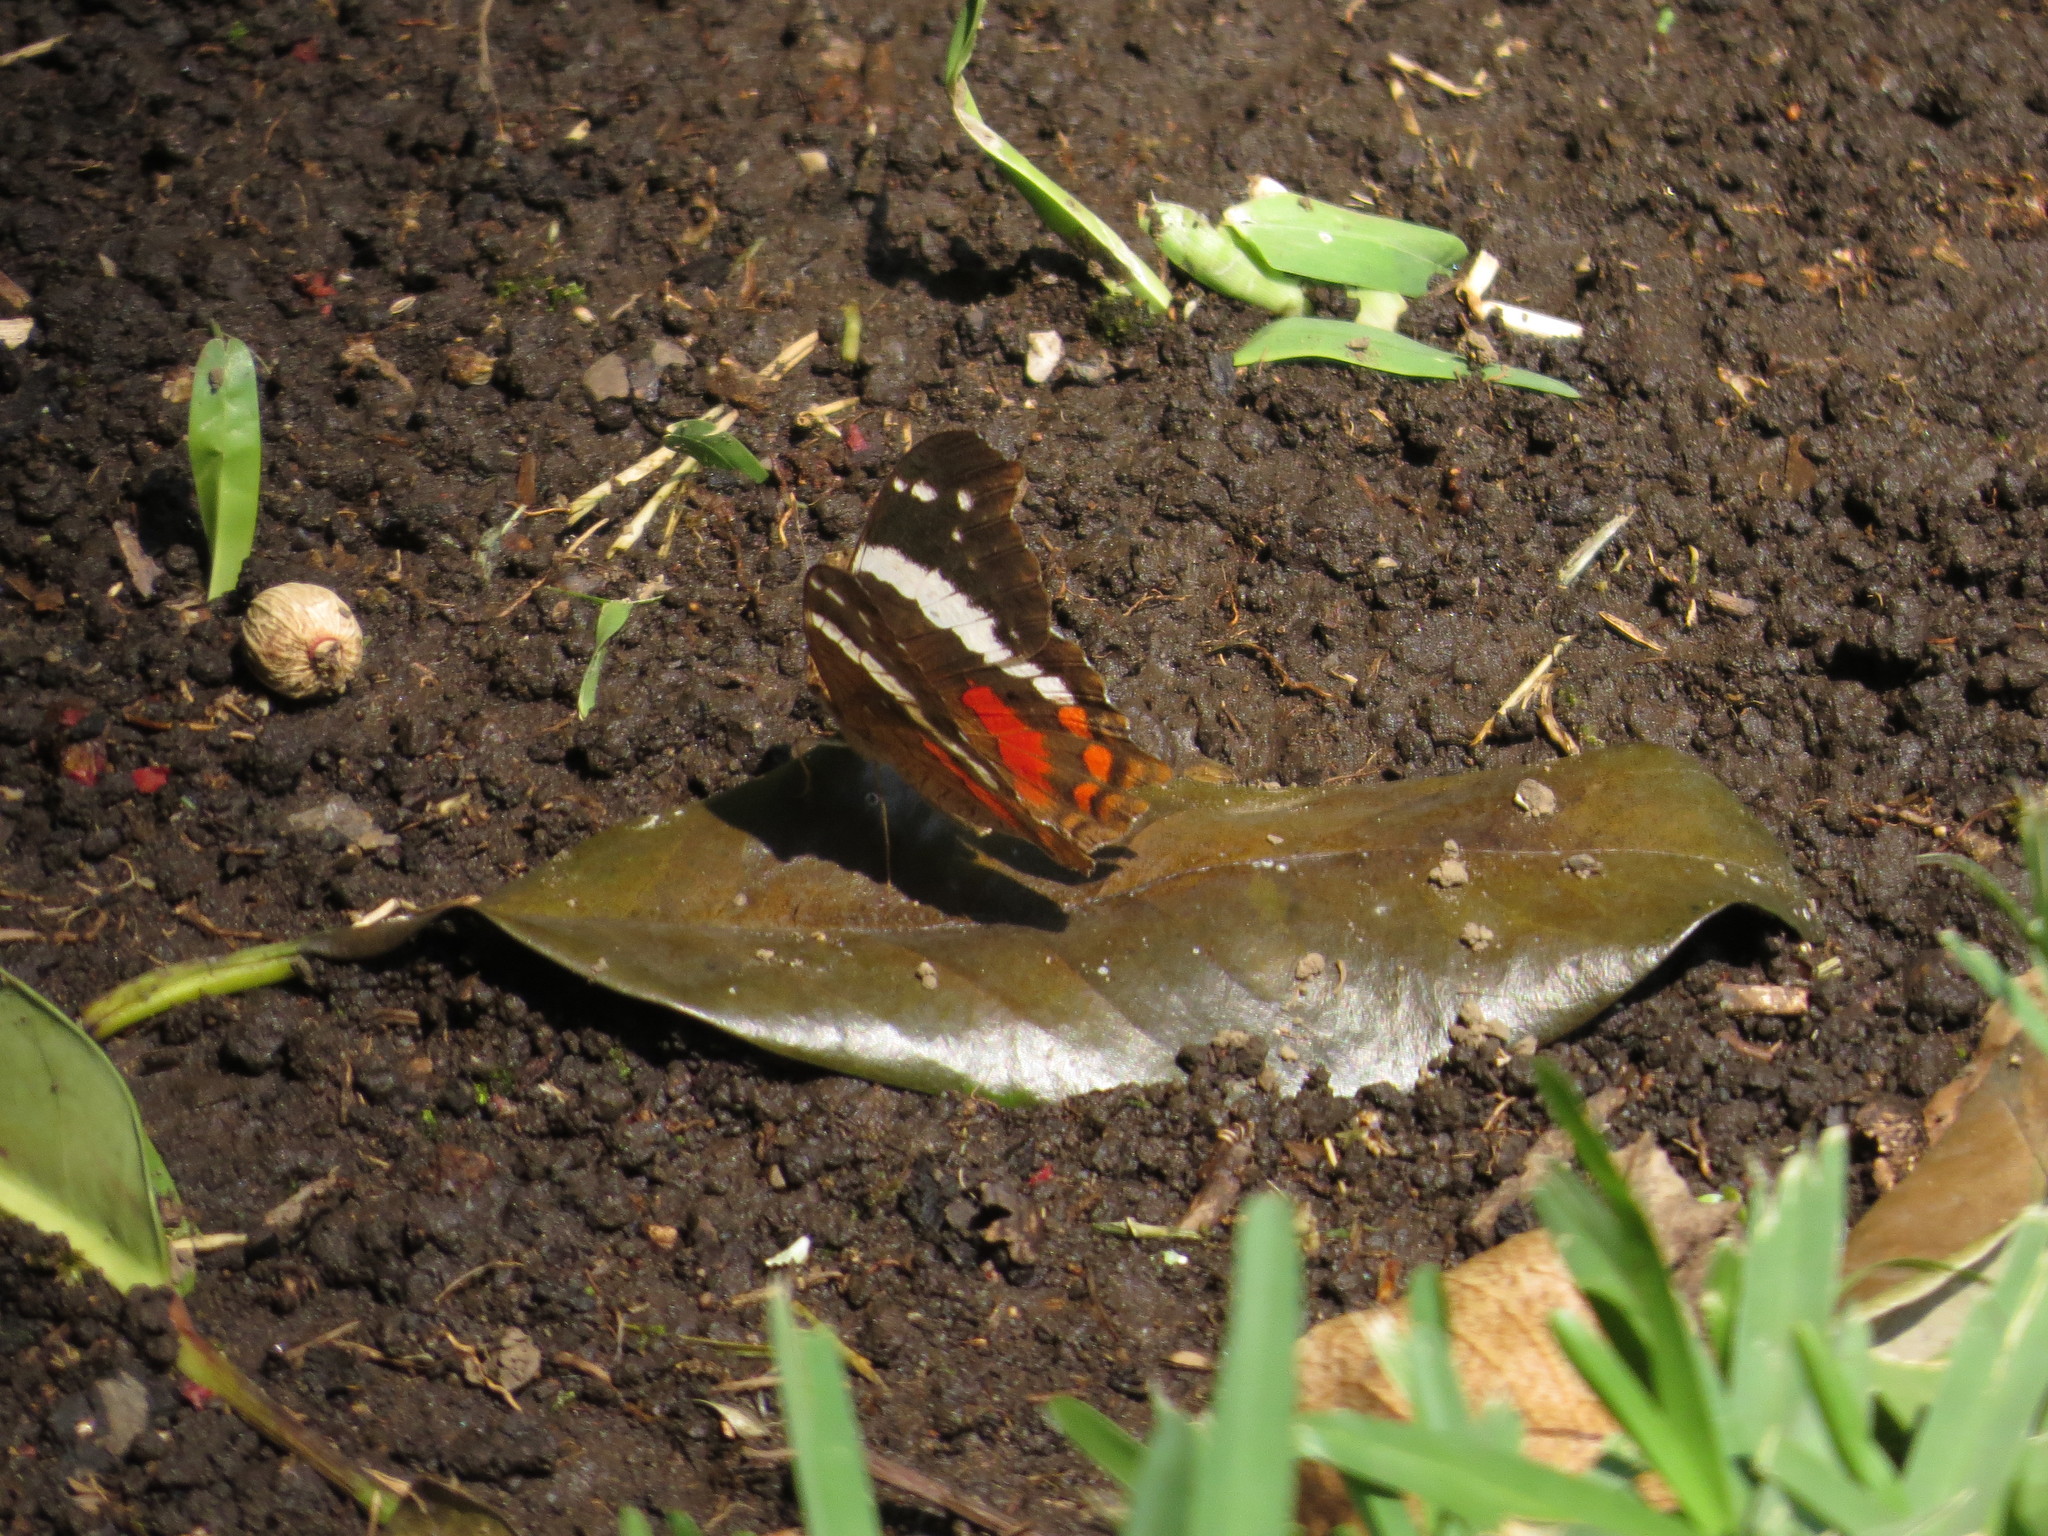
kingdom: Animalia
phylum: Arthropoda
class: Insecta
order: Lepidoptera
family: Nymphalidae
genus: Anartia
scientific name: Anartia fatima
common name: Banded peacock
